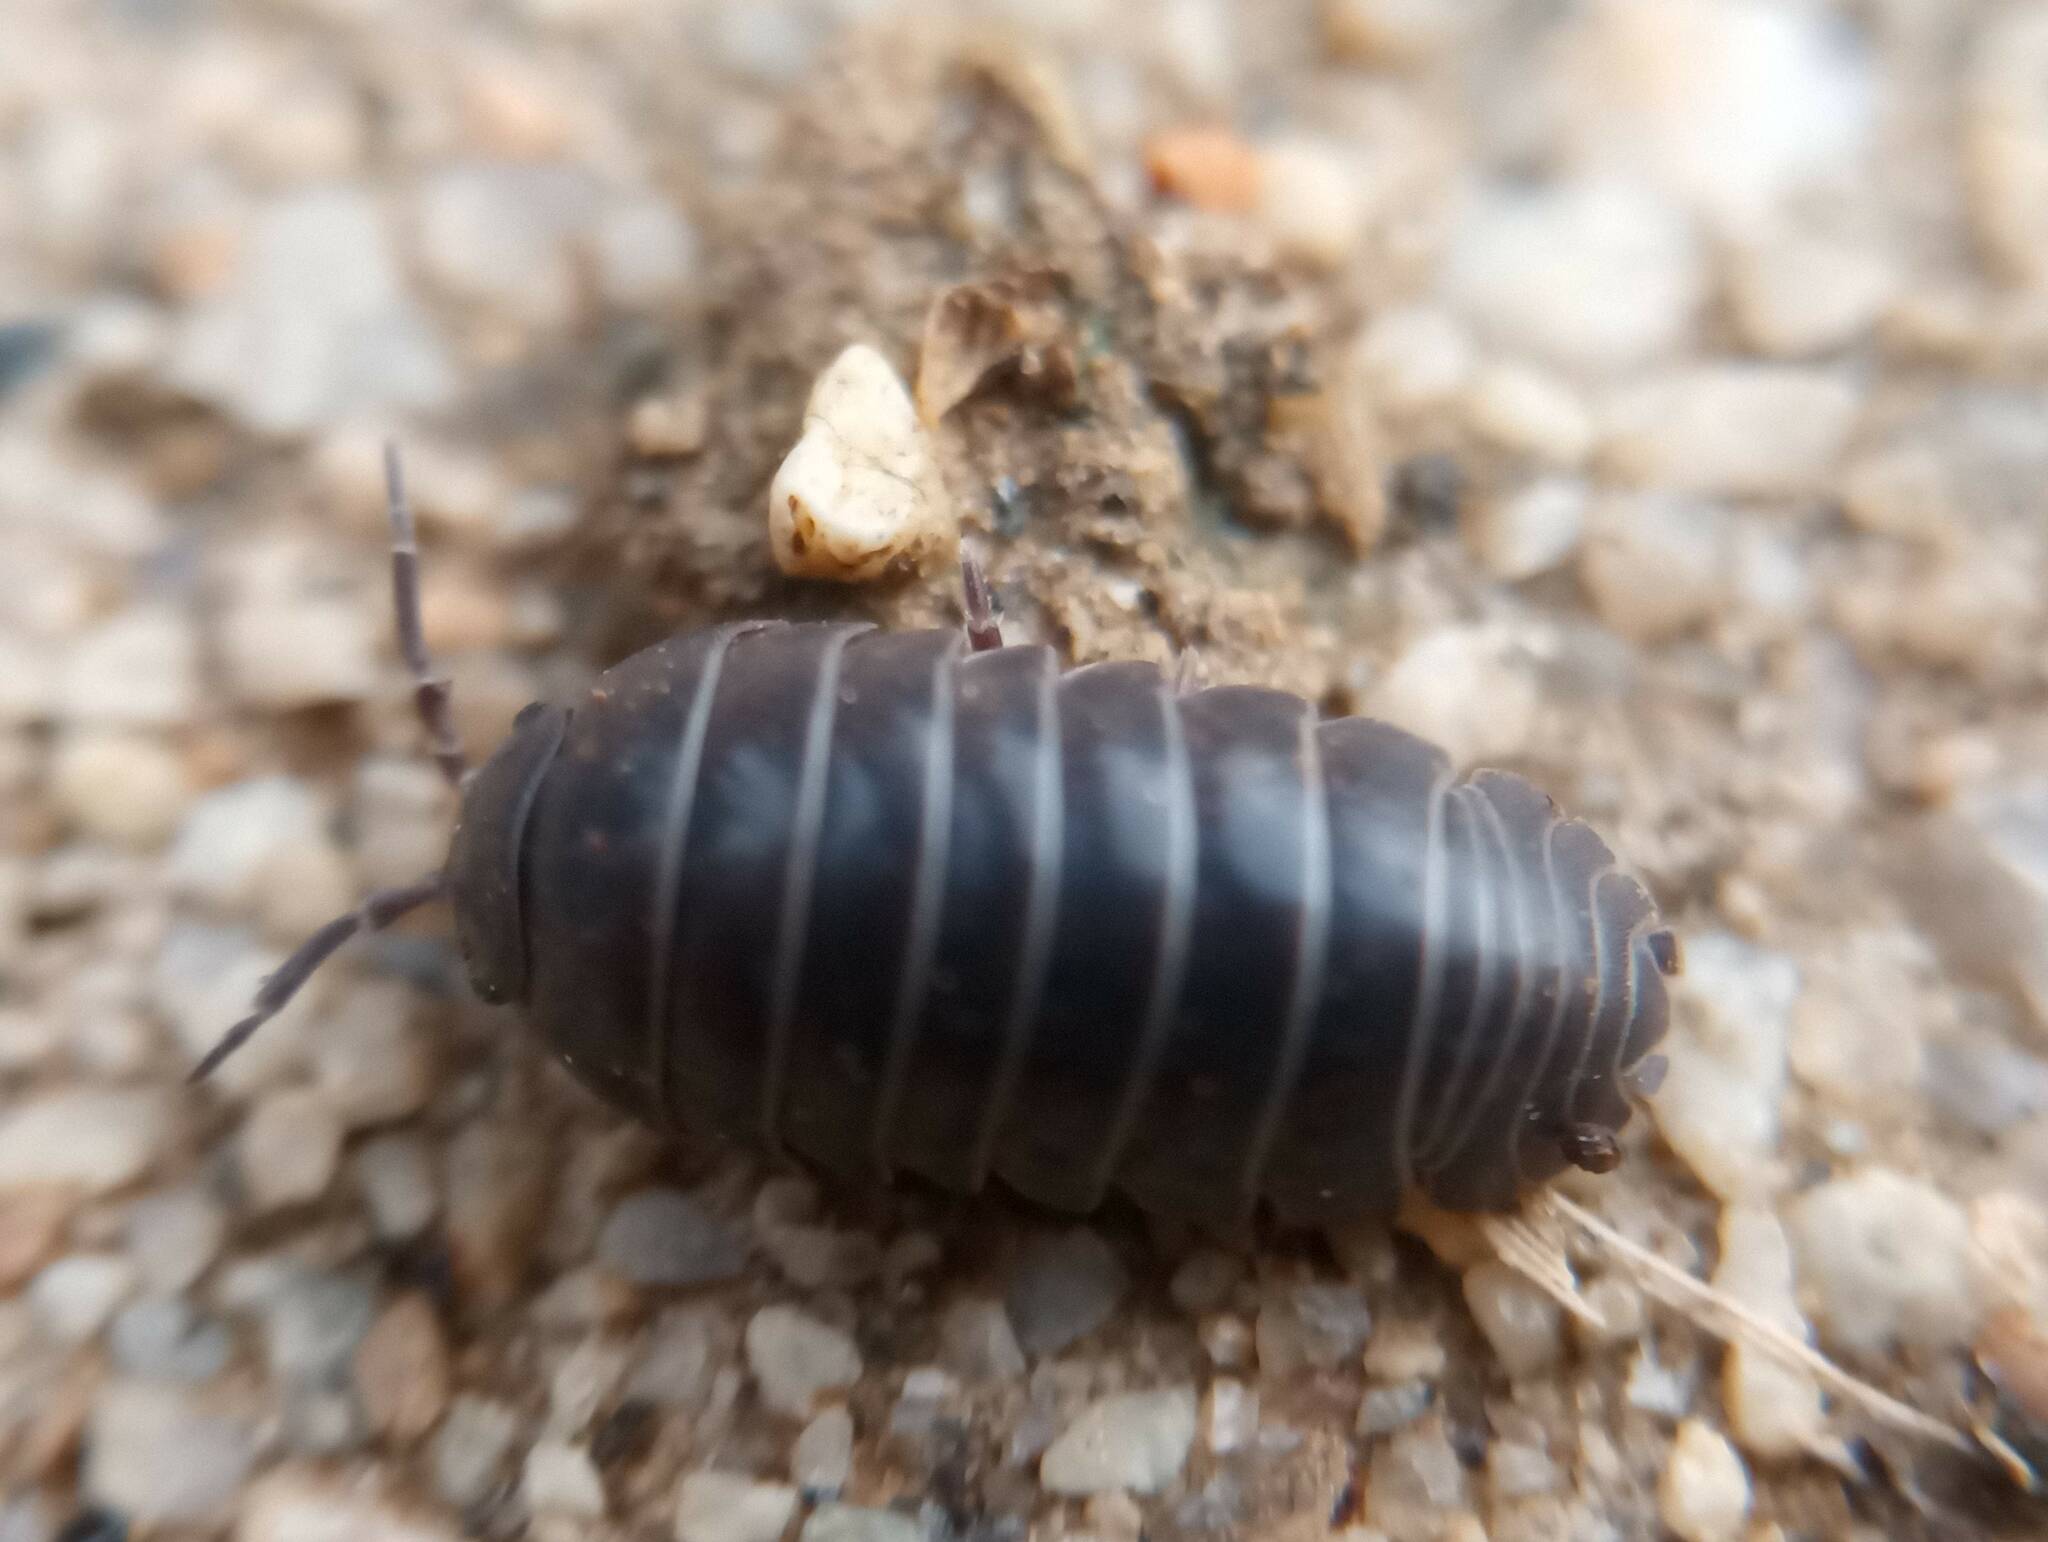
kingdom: Animalia
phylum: Arthropoda
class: Malacostraca
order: Isopoda
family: Armadillidiidae
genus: Armadillidium
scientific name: Armadillidium vulgare
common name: Common pill woodlouse
